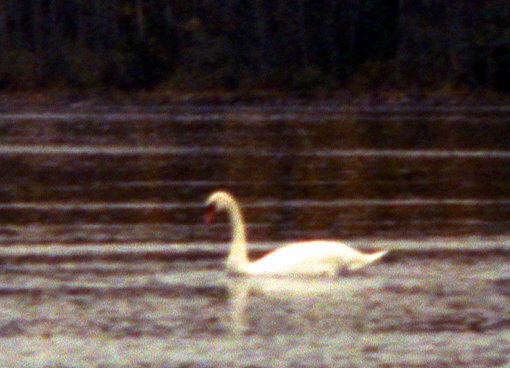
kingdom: Animalia
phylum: Chordata
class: Aves
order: Anseriformes
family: Anatidae
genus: Cygnus
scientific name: Cygnus olor
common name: Mute swan
